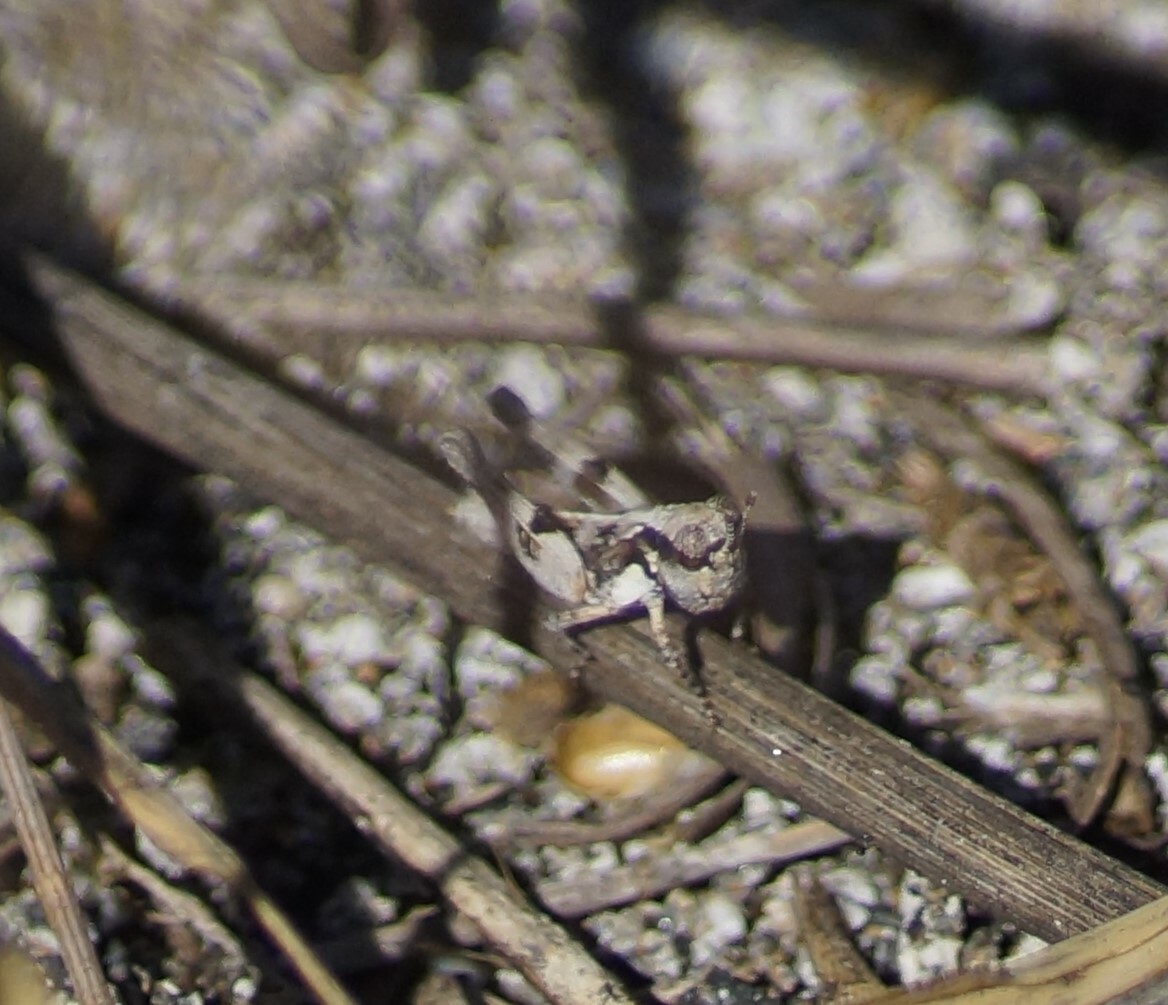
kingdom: Animalia
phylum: Arthropoda
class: Insecta
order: Orthoptera
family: Acrididae
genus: Pycnostictus
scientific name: Pycnostictus seriatus
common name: Common bandwing
